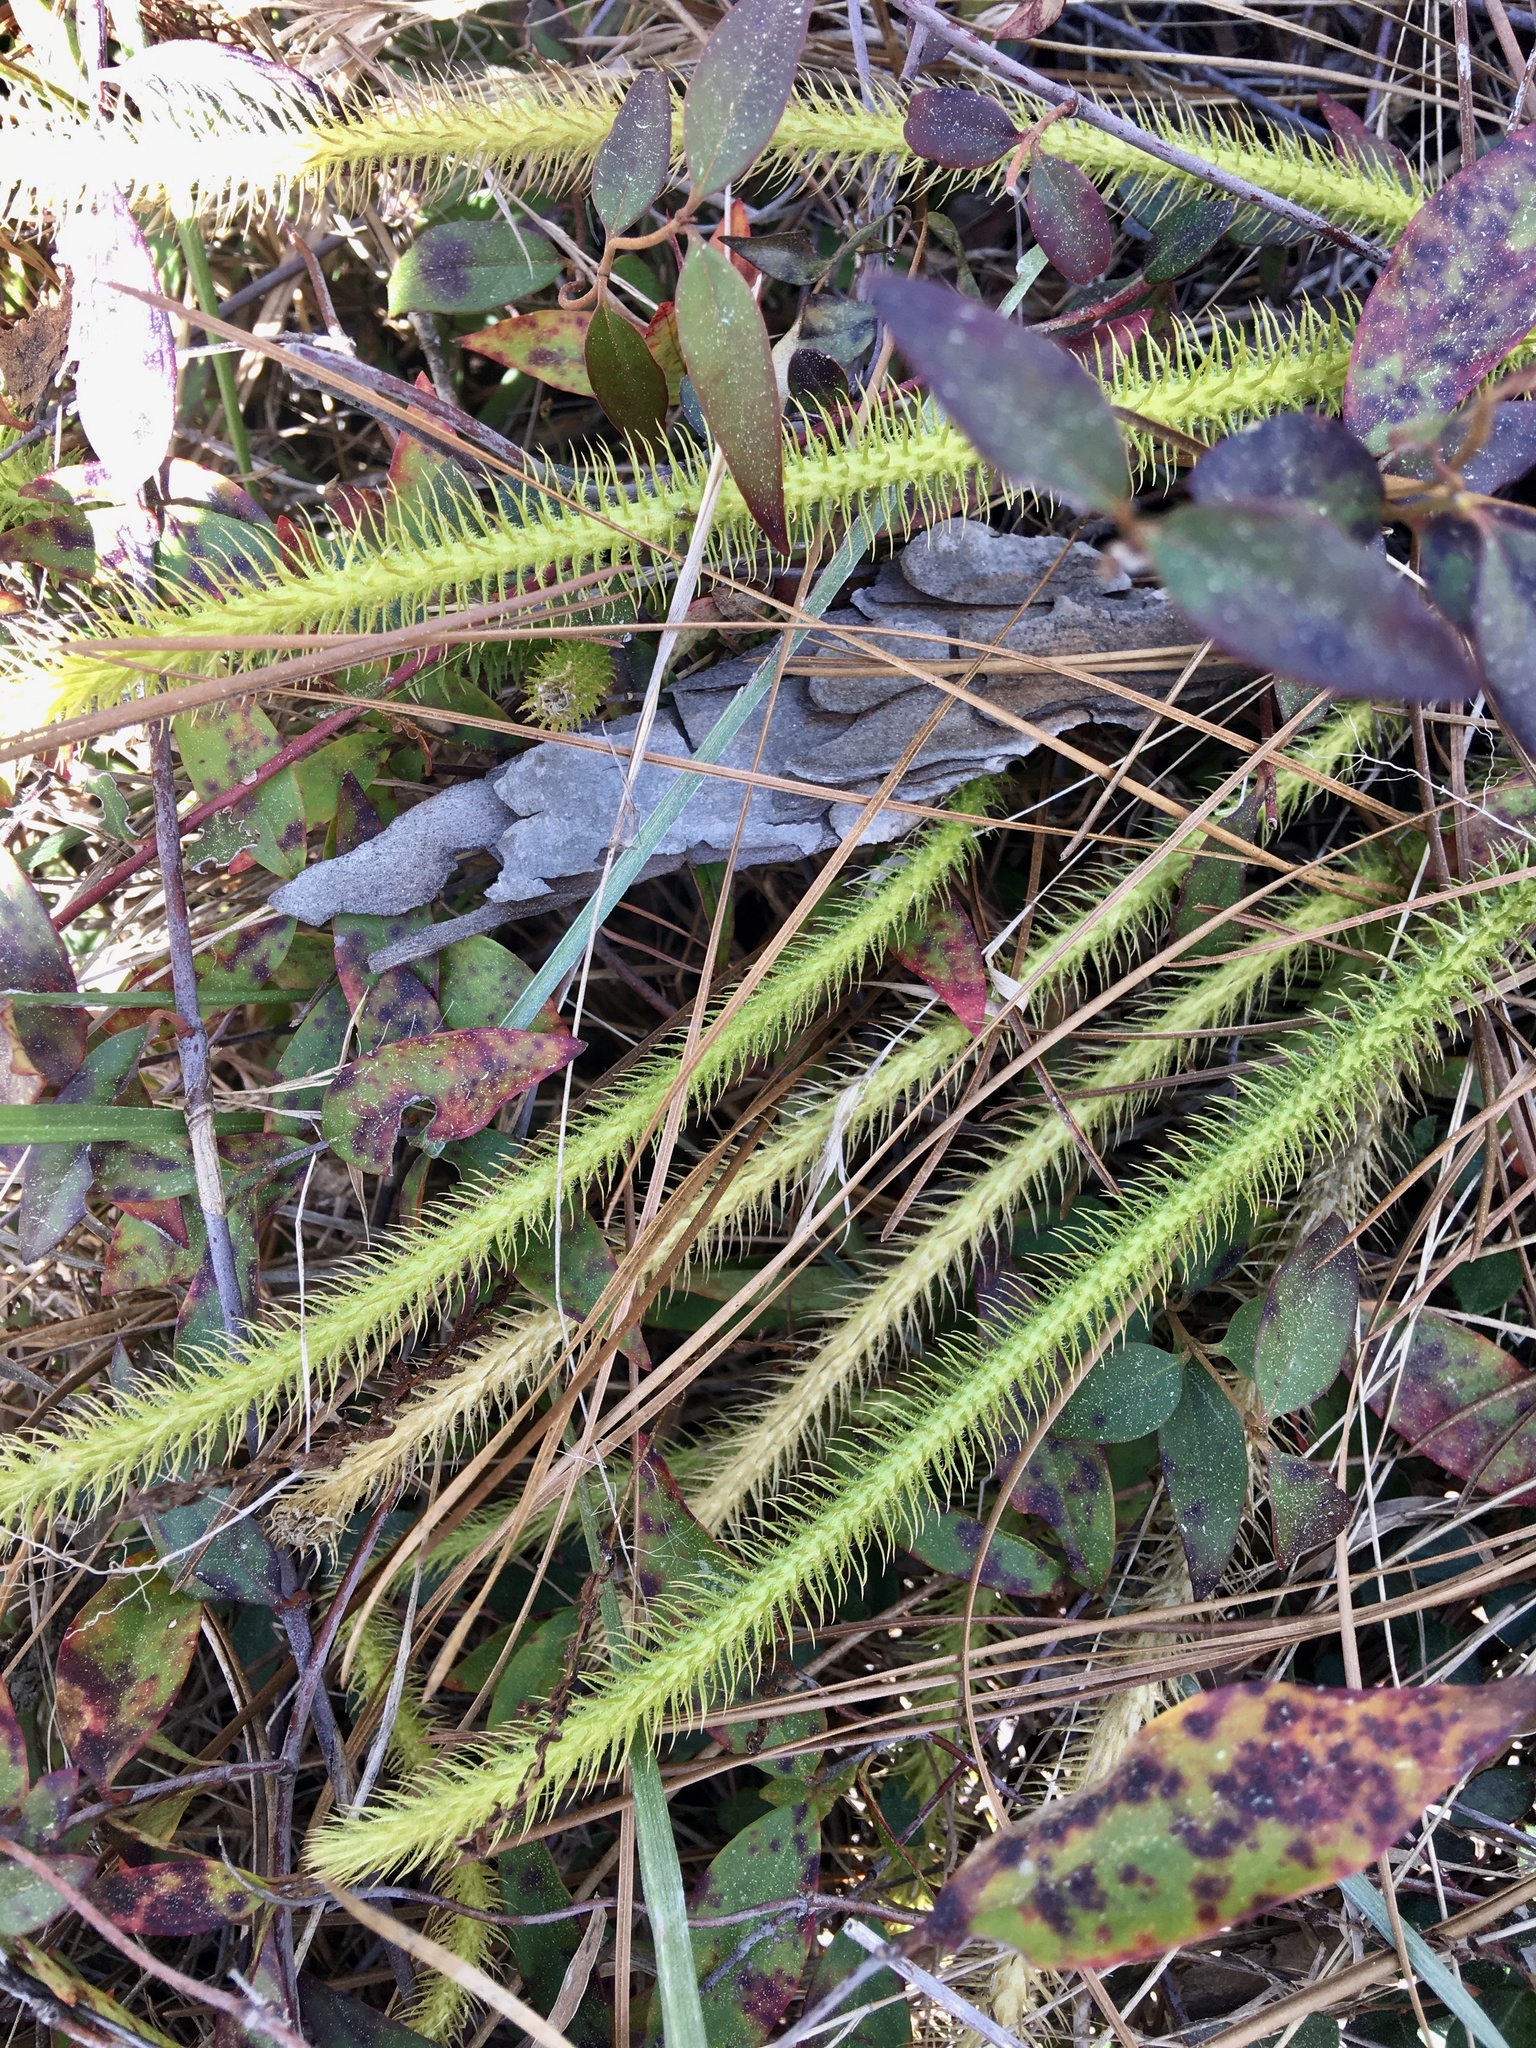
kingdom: Plantae
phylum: Tracheophyta
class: Lycopodiopsida
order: Lycopodiales
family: Lycopodiaceae
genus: Lycopodiella
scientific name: Lycopodiella alopecuroides
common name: Foxtail clubmoss
